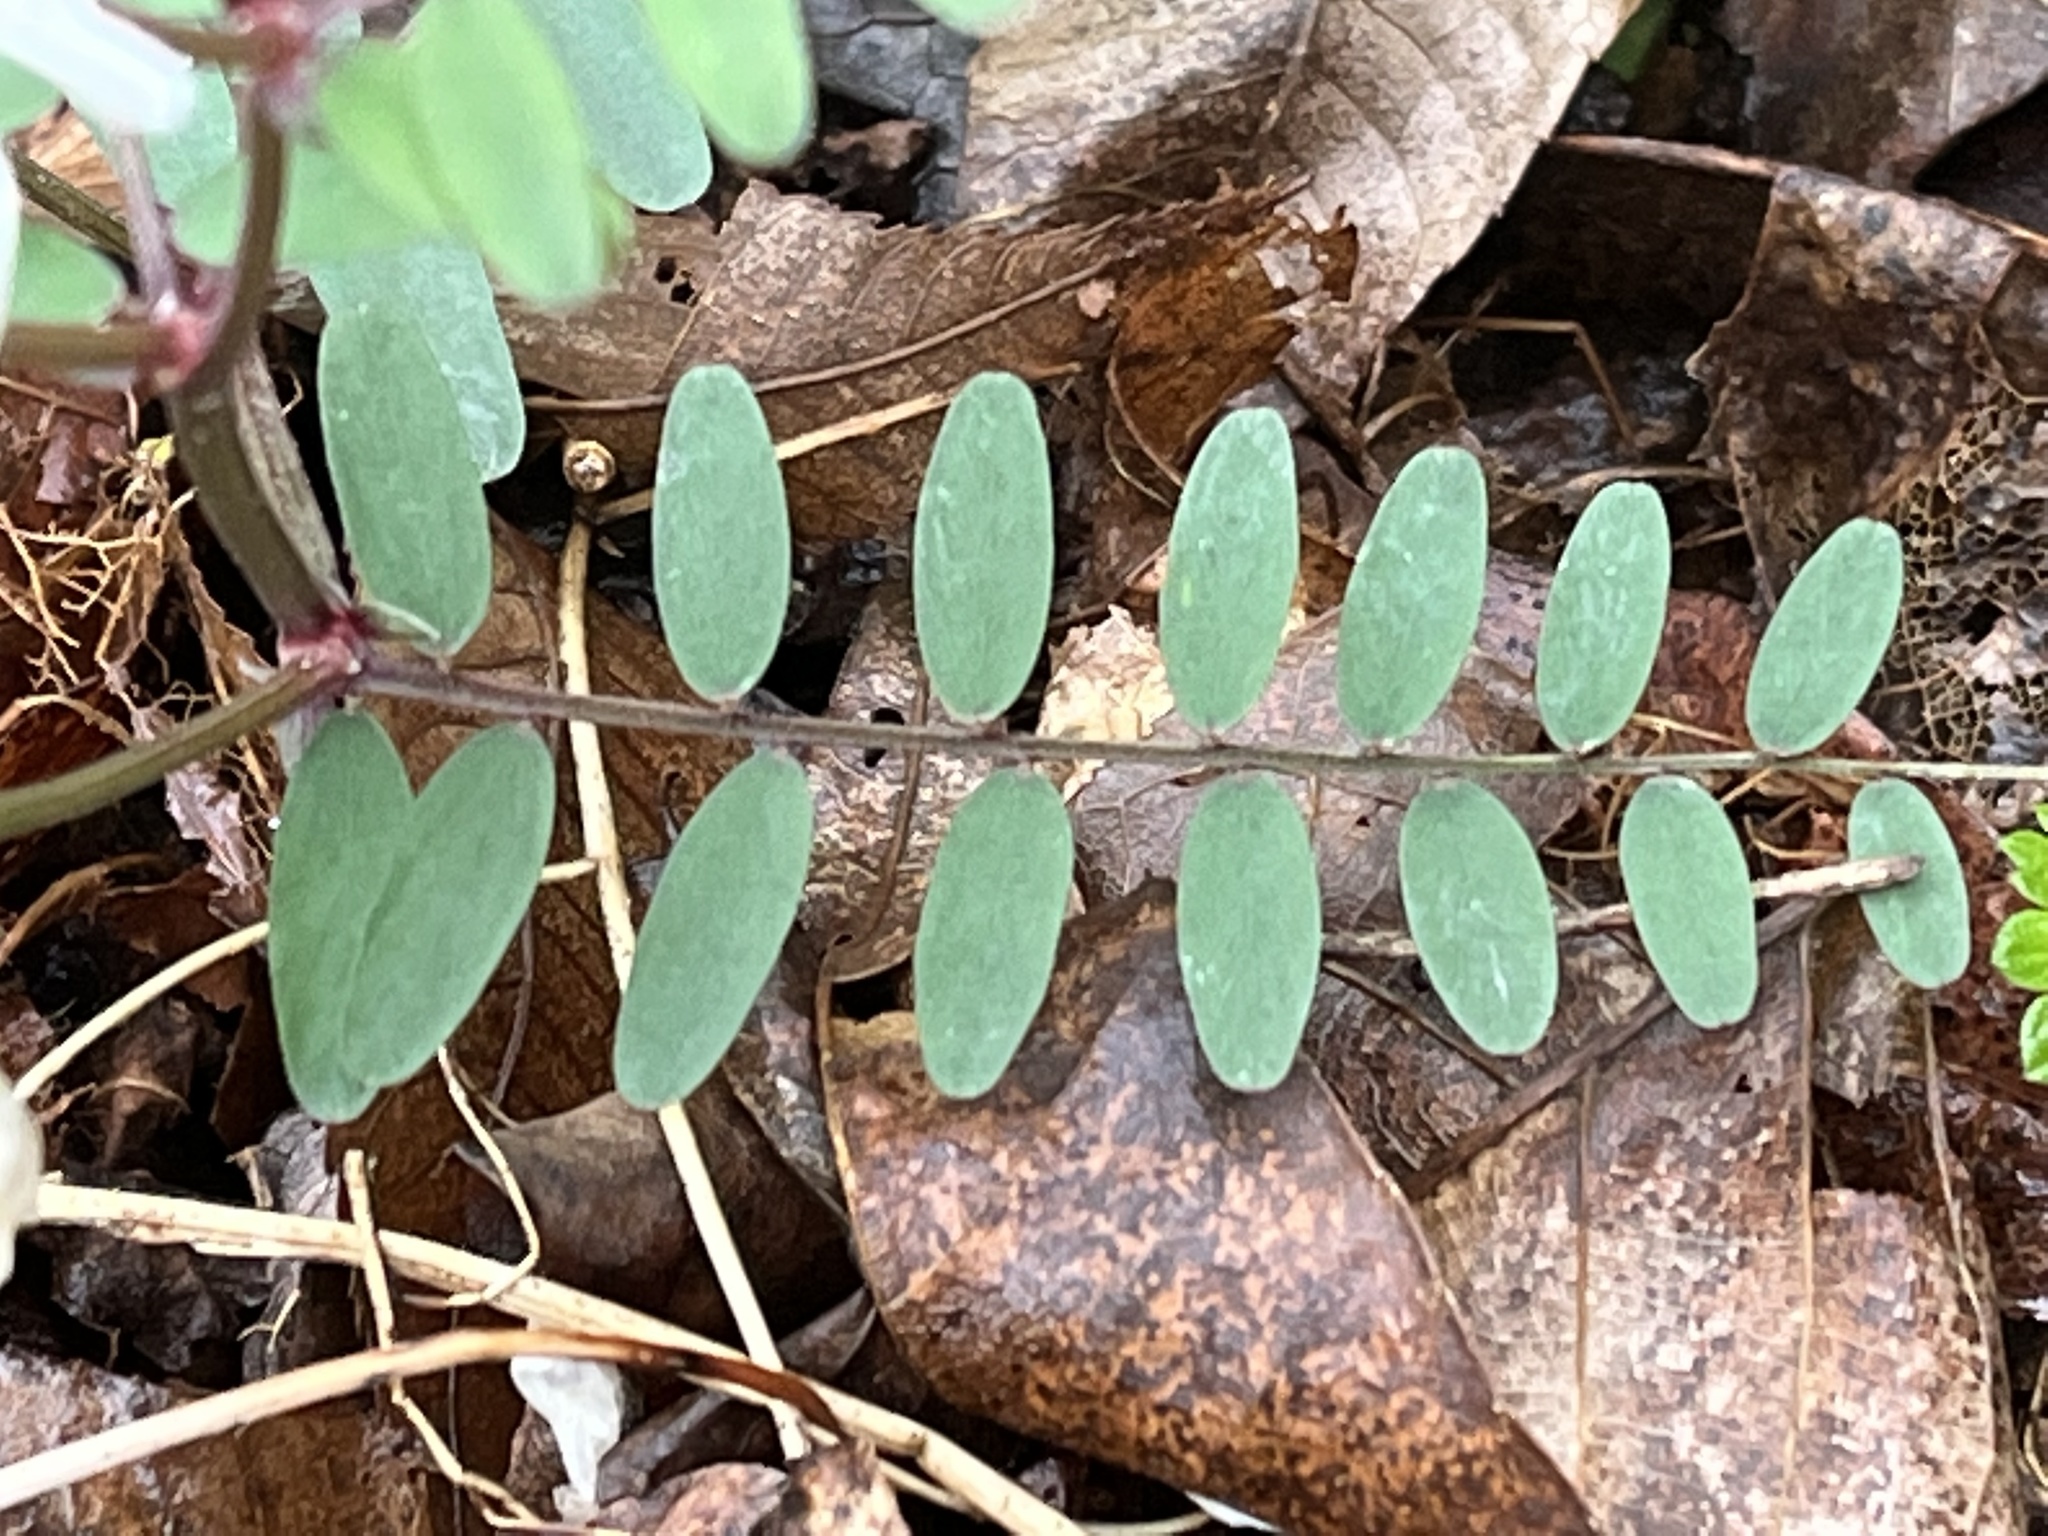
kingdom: Plantae
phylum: Tracheophyta
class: Magnoliopsida
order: Fabales
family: Fabaceae
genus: Vicia
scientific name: Vicia caroliniana
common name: Carolina vetch
